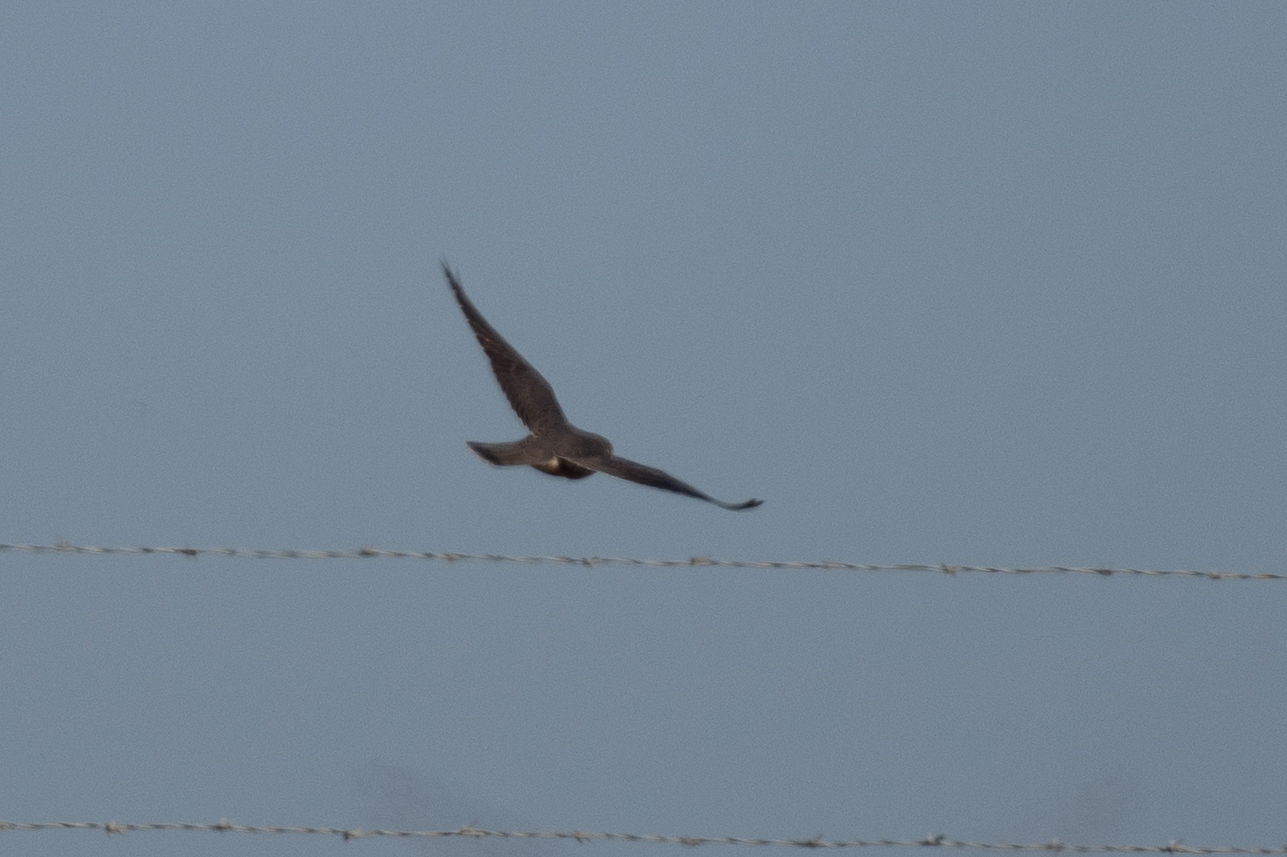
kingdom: Animalia
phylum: Chordata
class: Aves
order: Falconiformes
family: Falconidae
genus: Falco
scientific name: Falco columbarius
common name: Merlin
